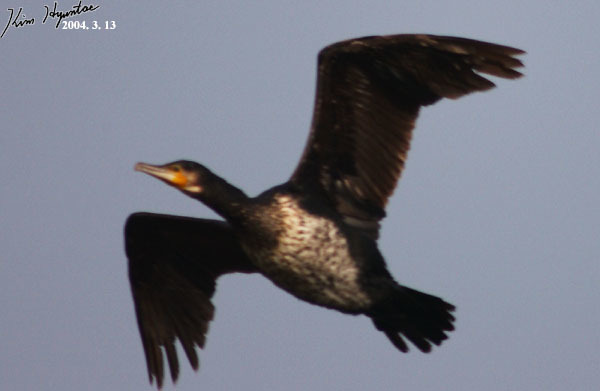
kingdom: Animalia
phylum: Chordata
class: Aves
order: Suliformes
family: Phalacrocoracidae
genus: Phalacrocorax
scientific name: Phalacrocorax carbo
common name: Great cormorant
